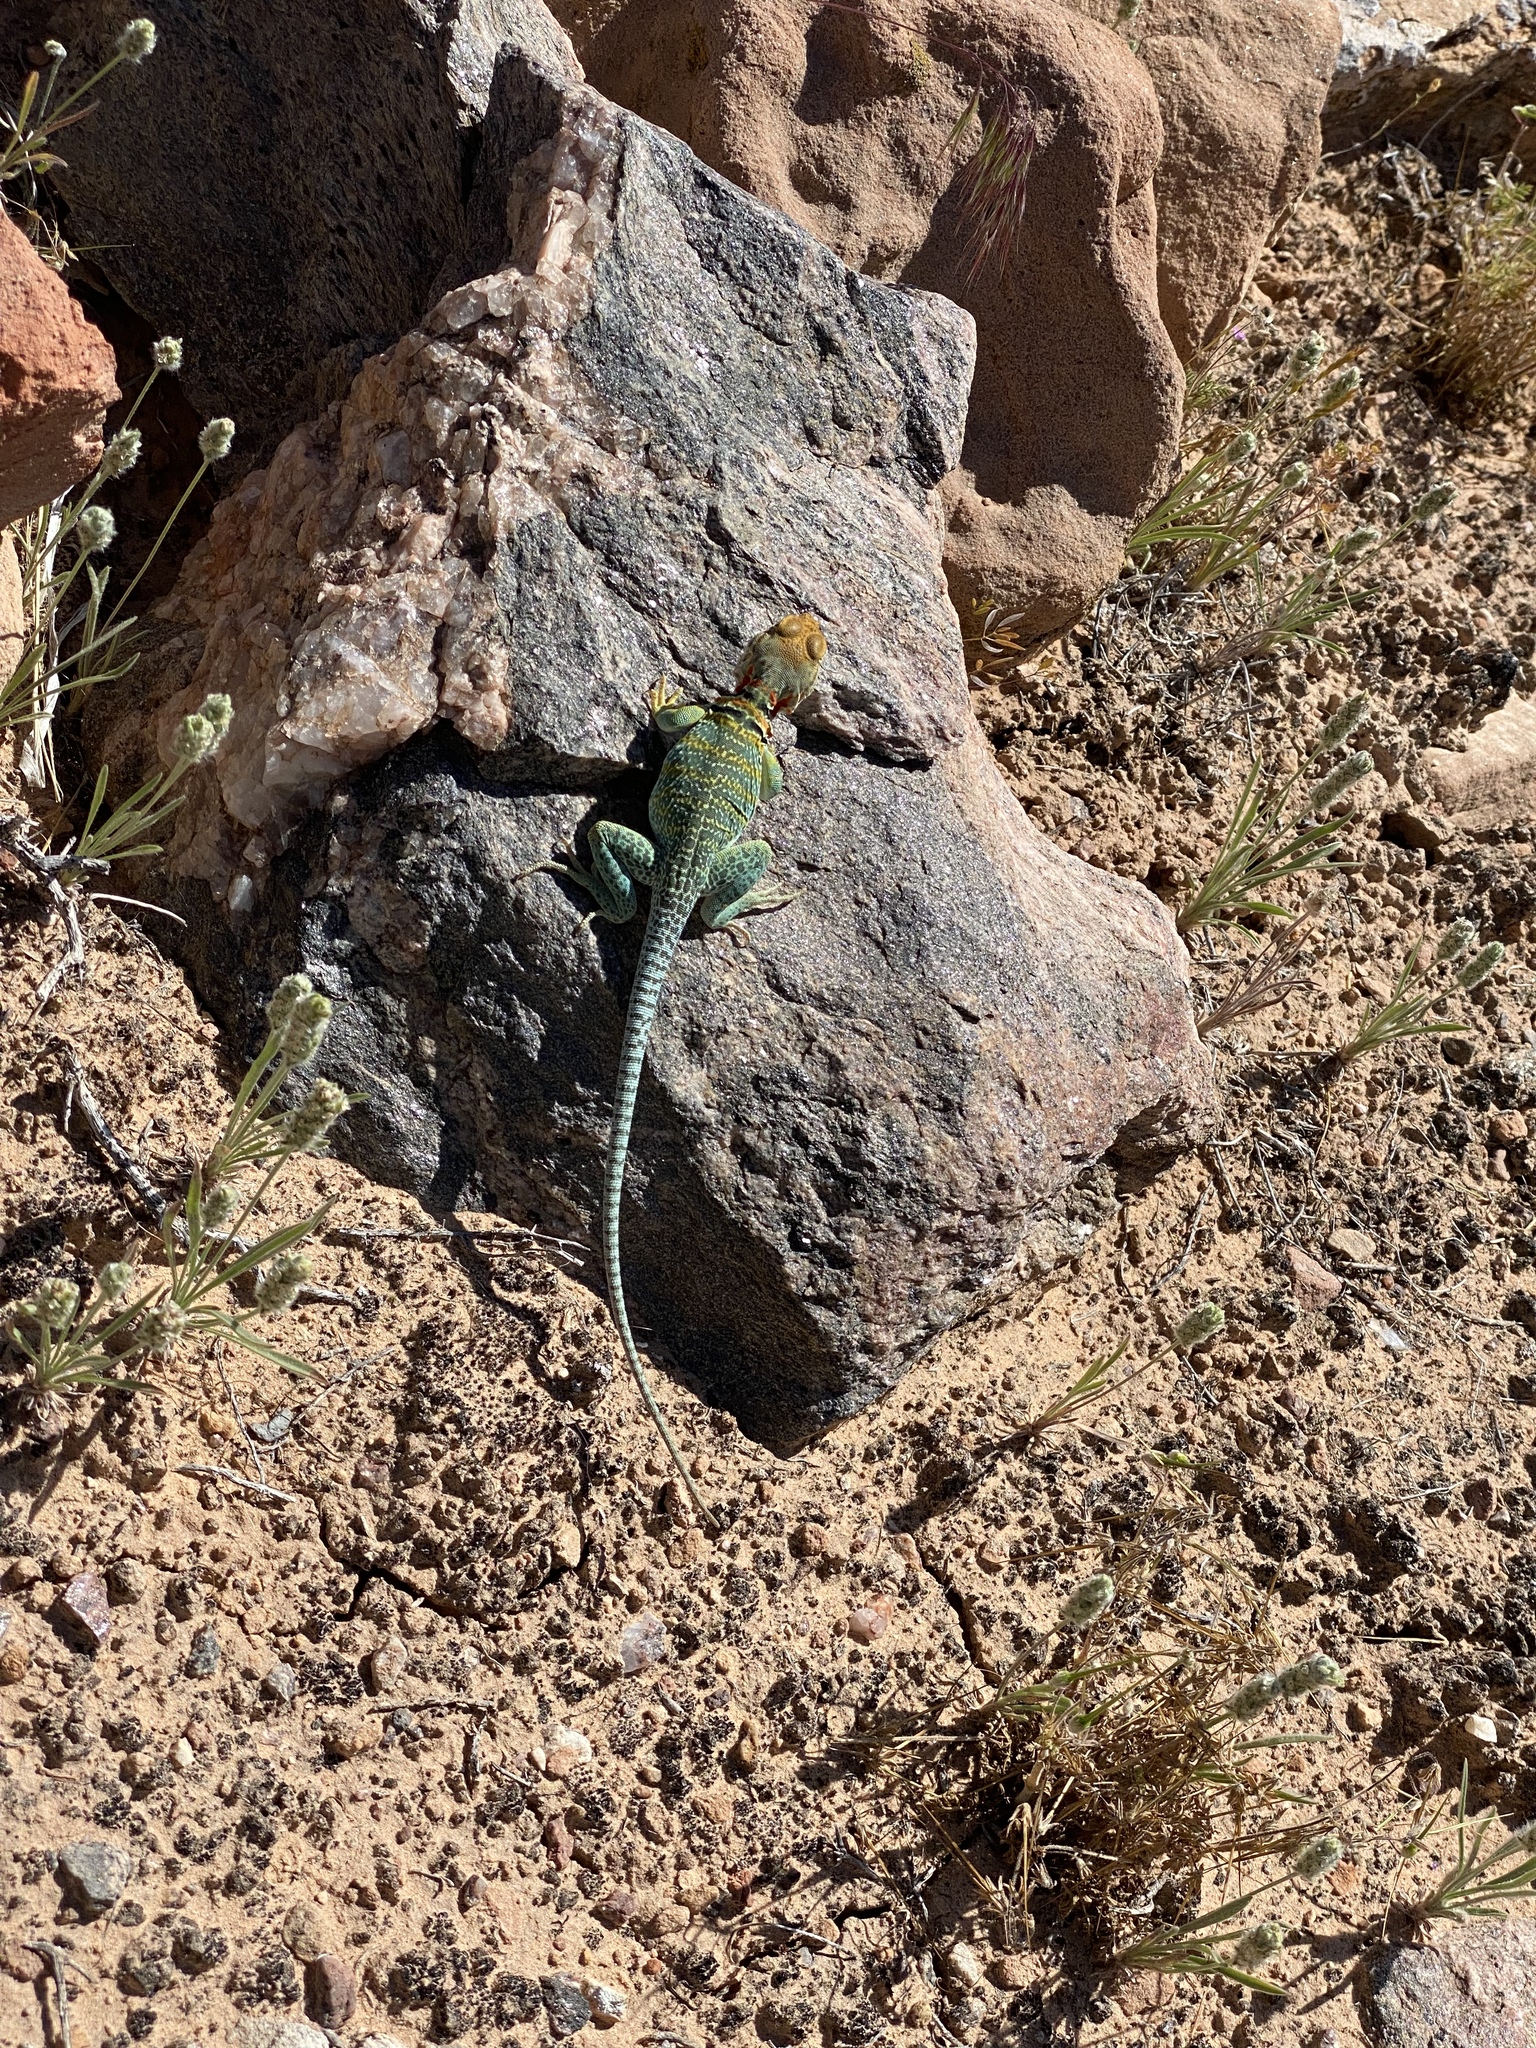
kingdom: Animalia
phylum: Chordata
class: Squamata
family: Crotaphytidae
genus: Crotaphytus
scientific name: Crotaphytus collaris
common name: Collared lizard
